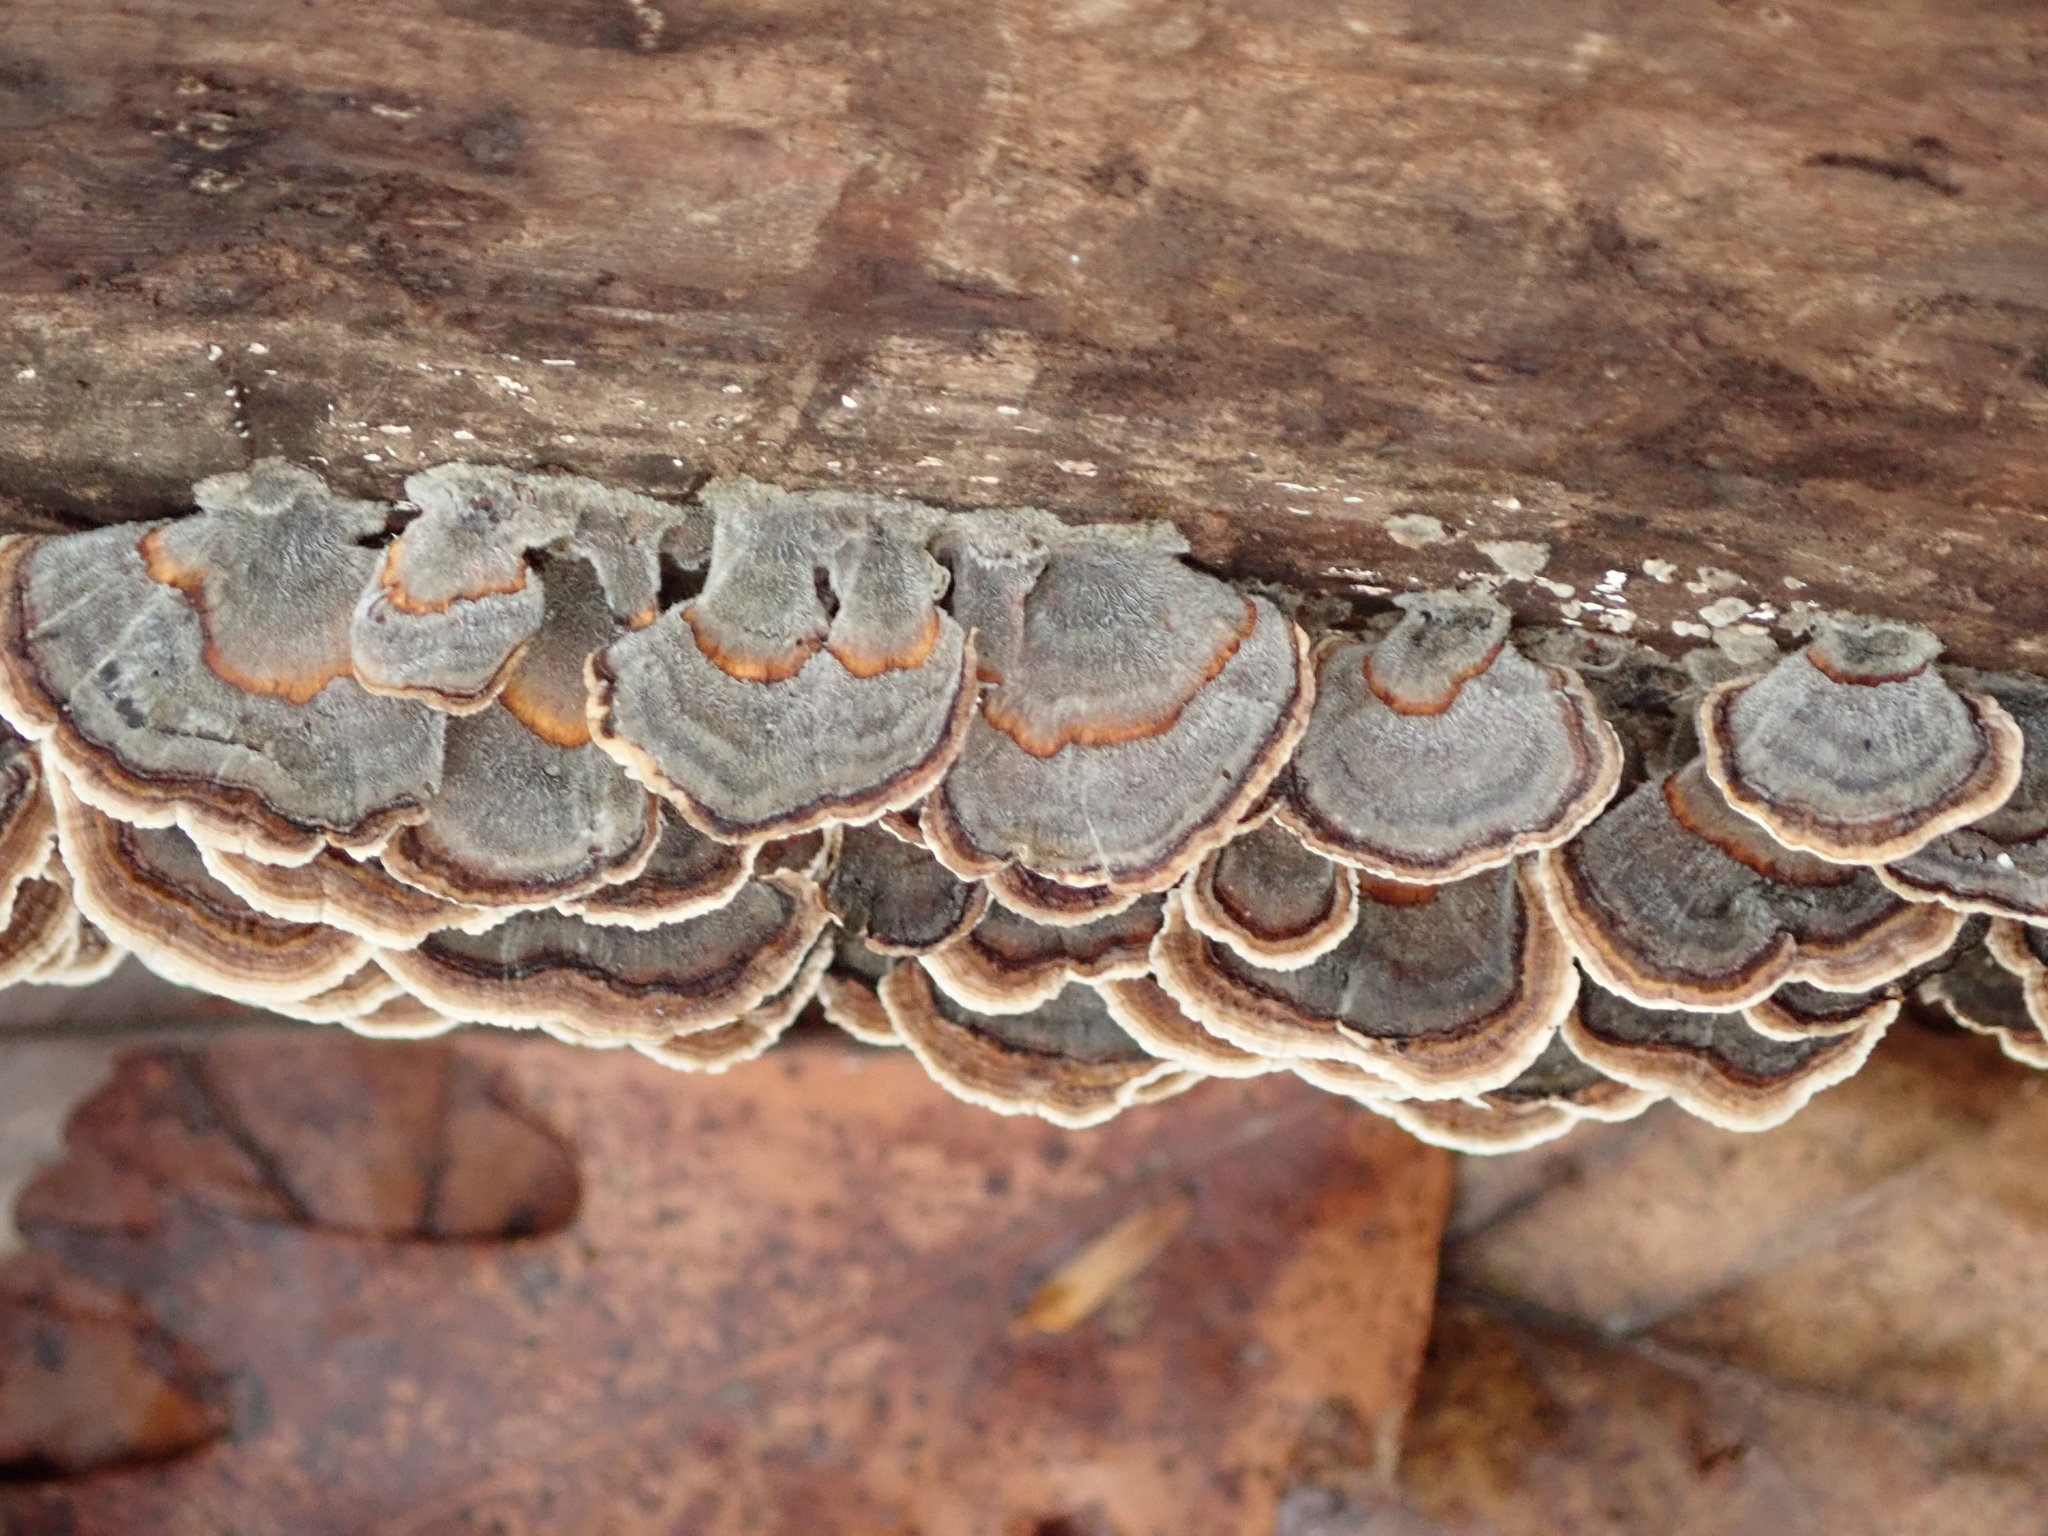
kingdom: Fungi
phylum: Basidiomycota
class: Agaricomycetes
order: Polyporales
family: Polyporaceae
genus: Trametes
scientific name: Trametes versicolor
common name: Turkeytail
